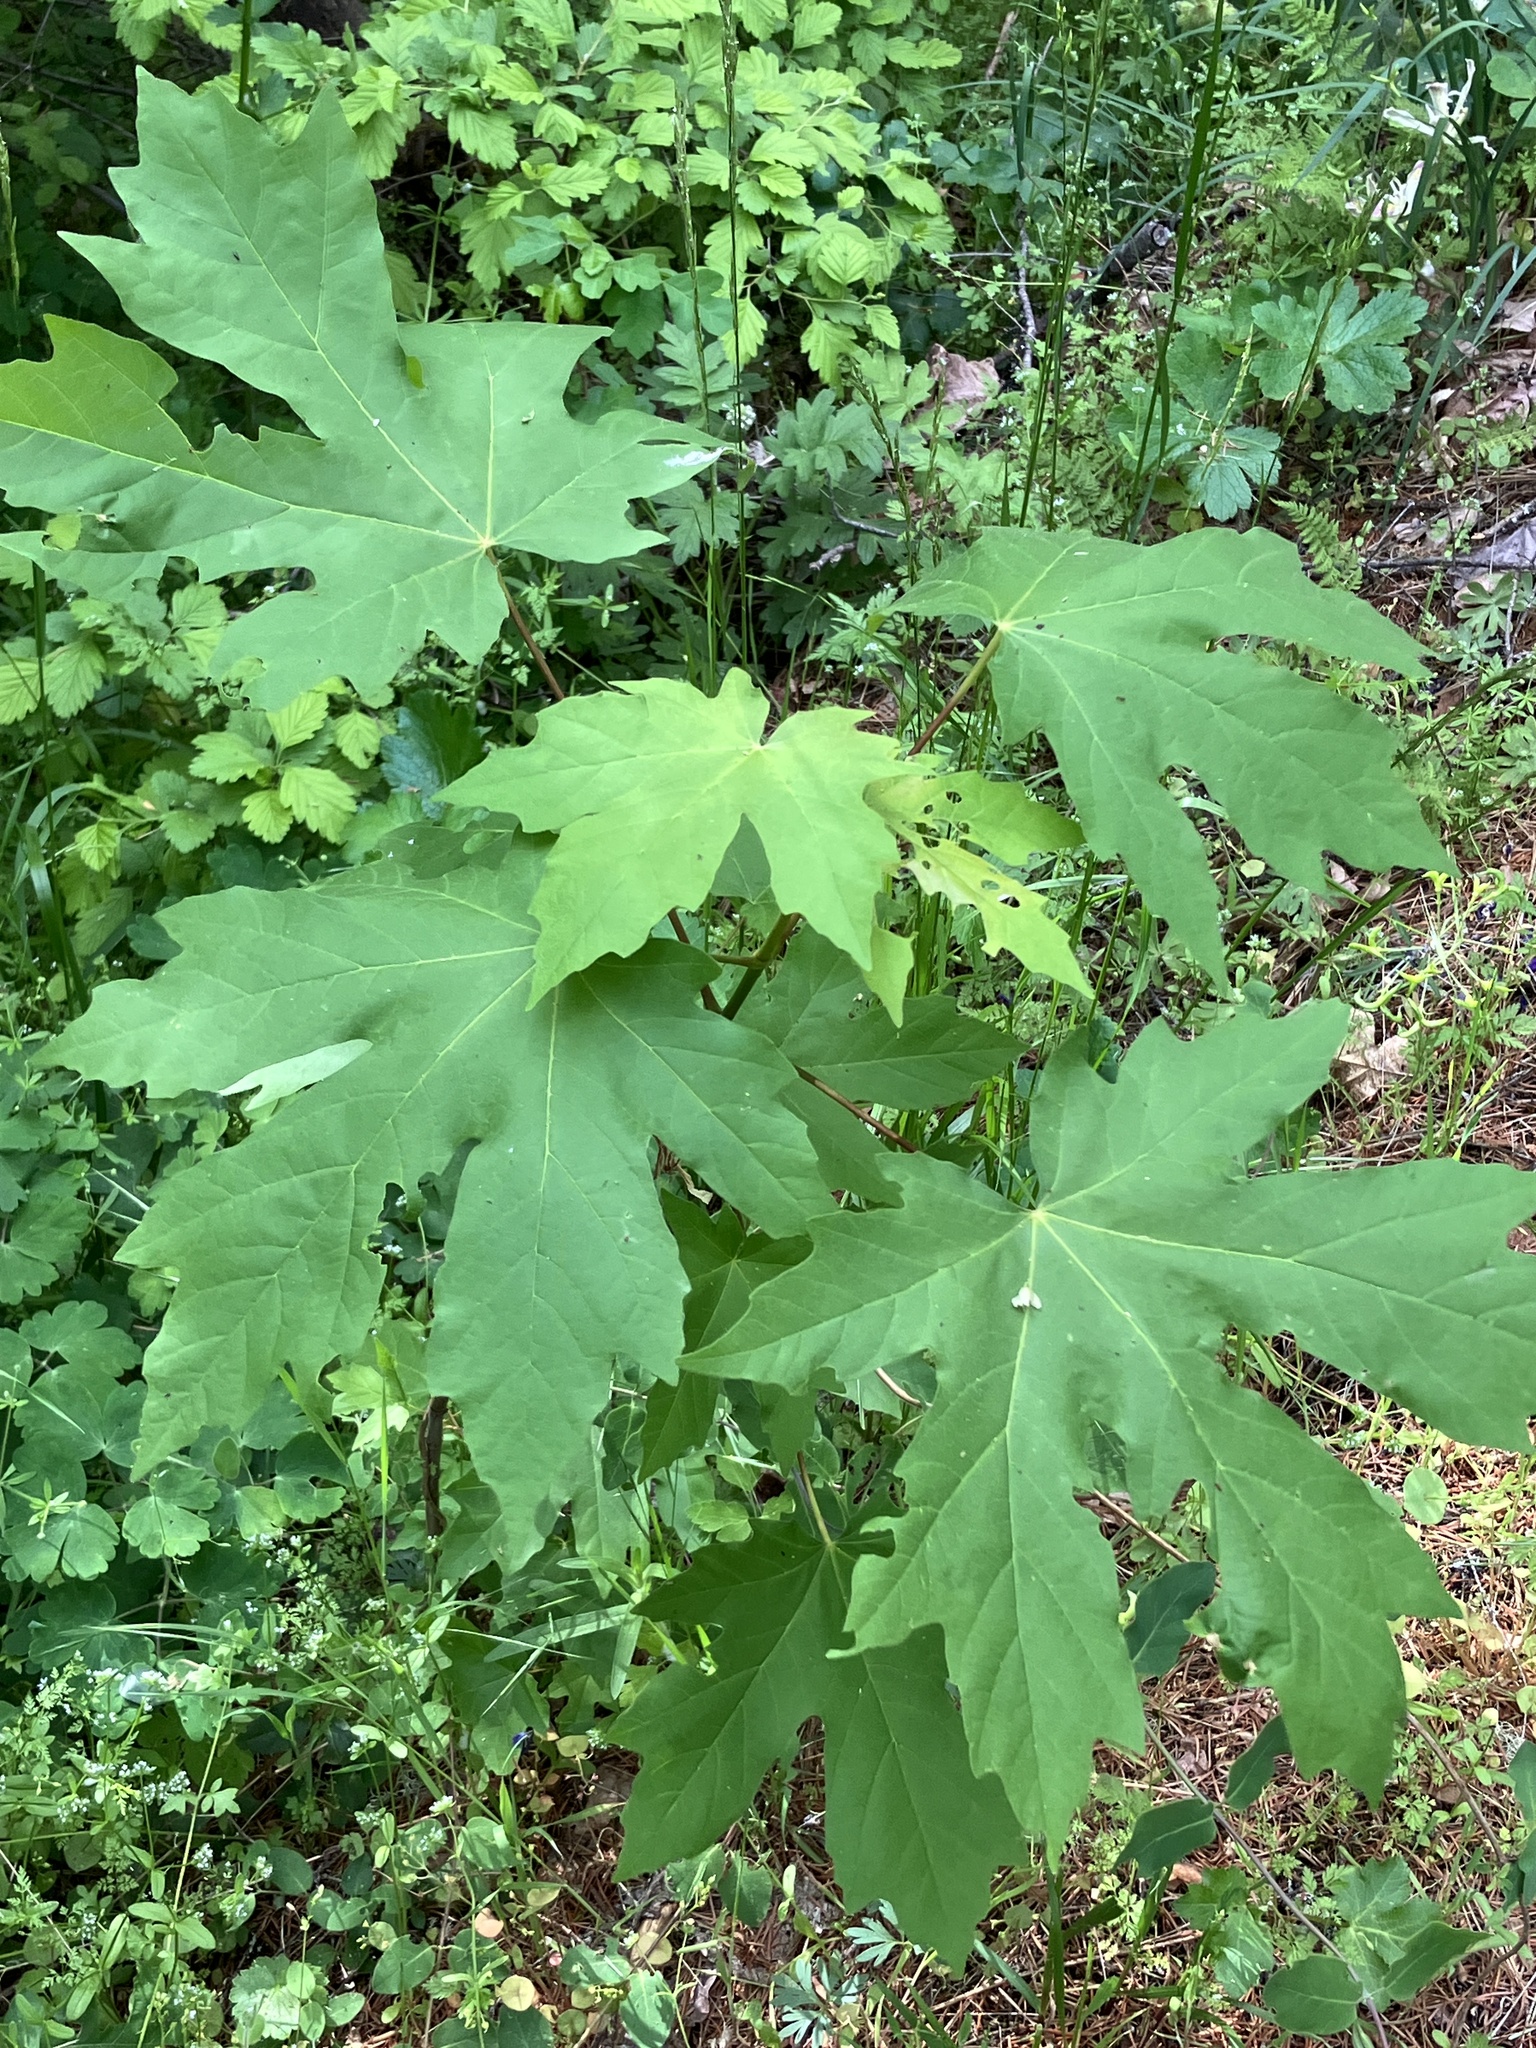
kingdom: Plantae
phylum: Tracheophyta
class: Magnoliopsida
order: Sapindales
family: Sapindaceae
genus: Acer
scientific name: Acer macrophyllum
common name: Oregon maple
